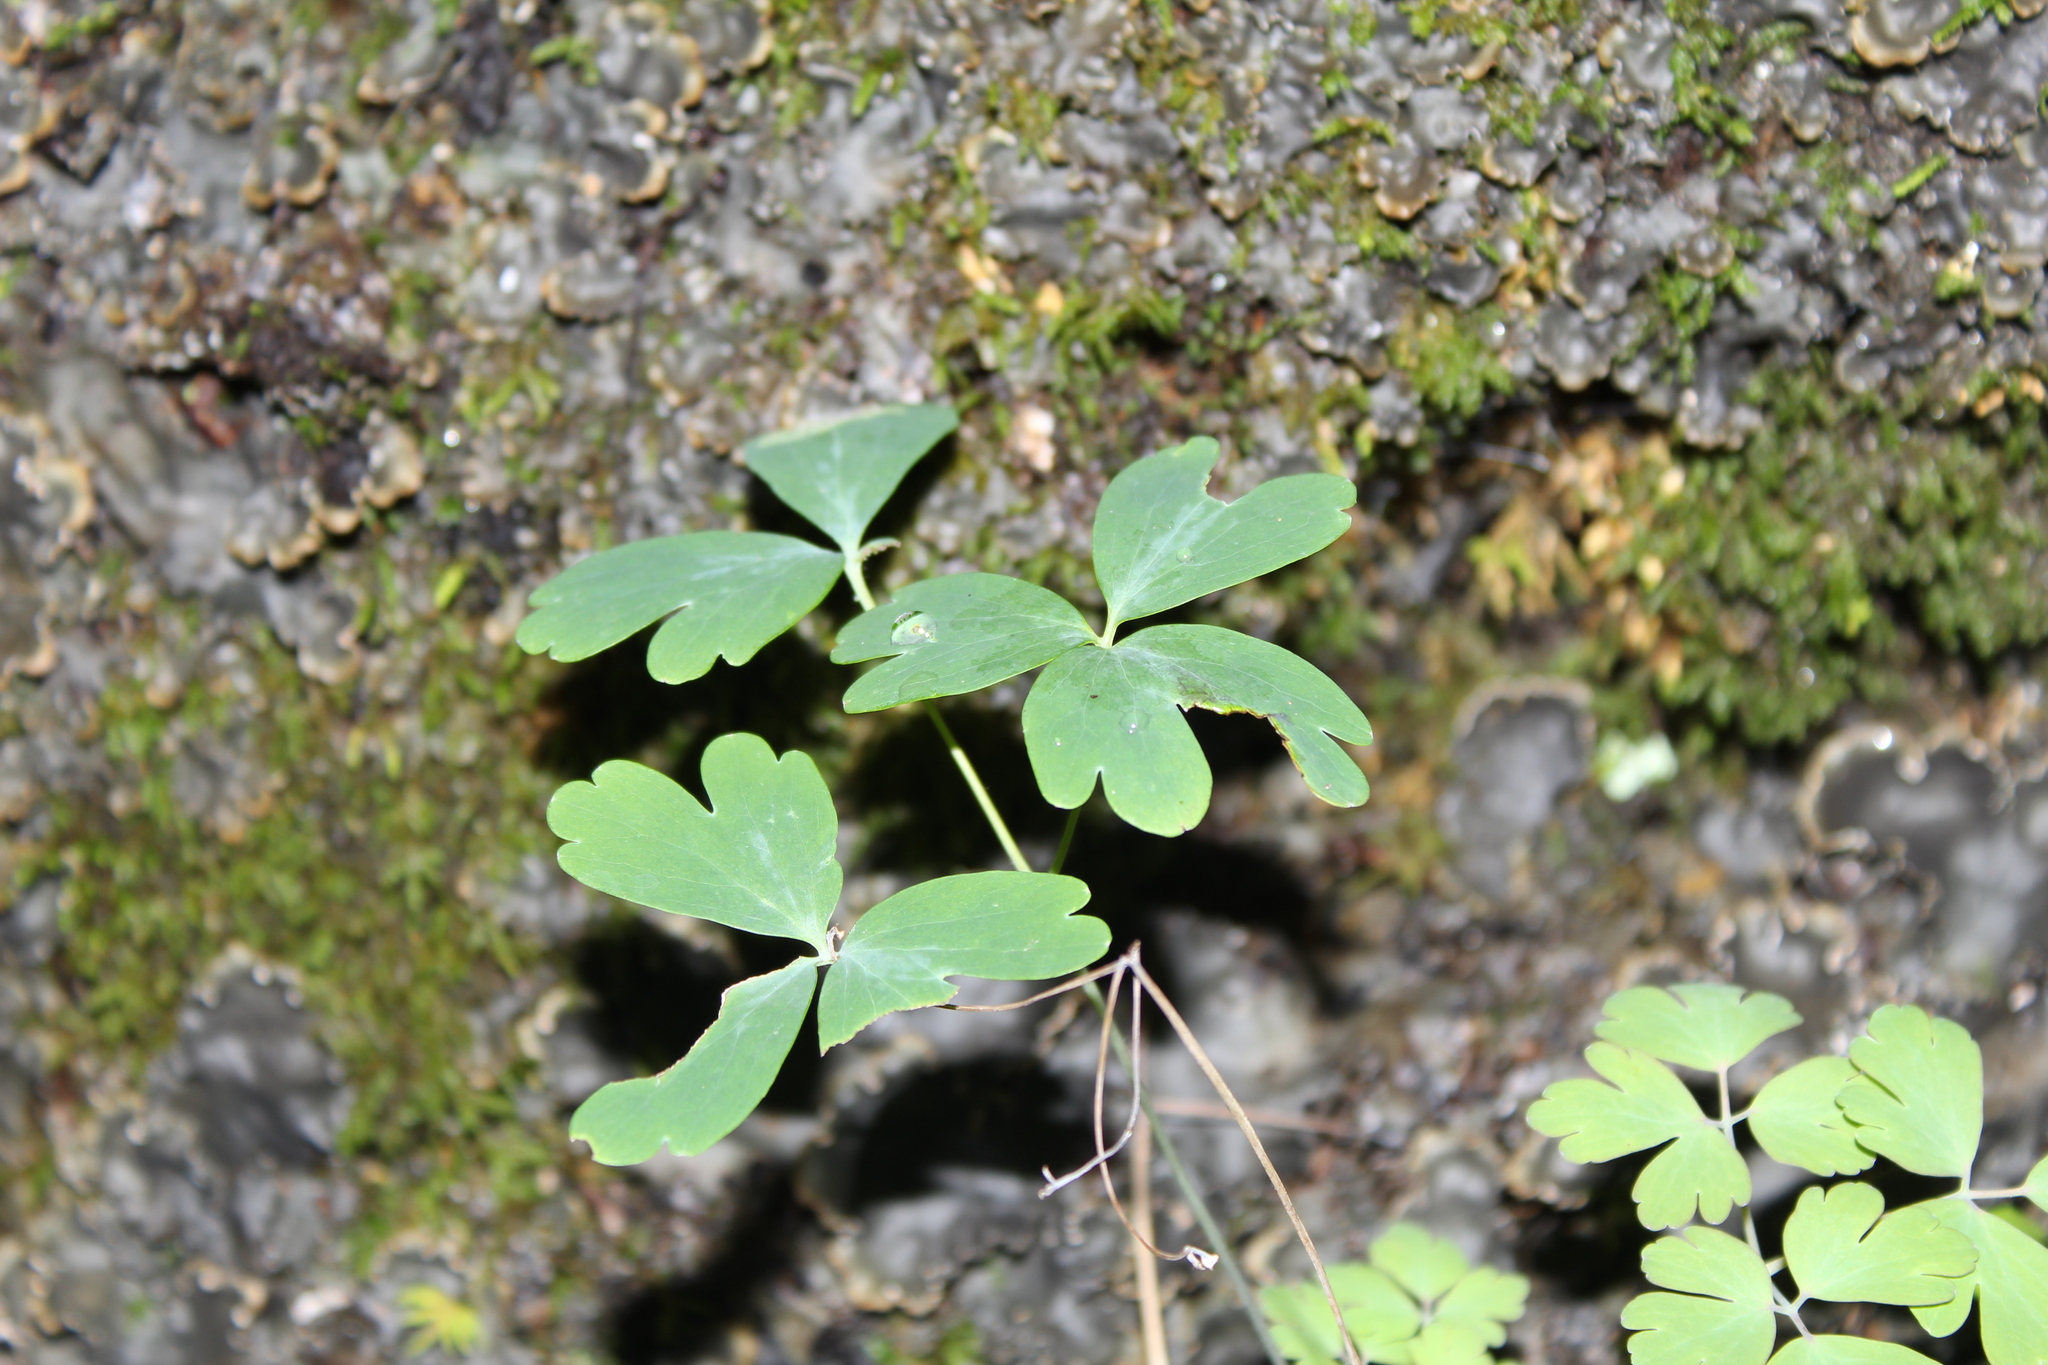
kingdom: Plantae
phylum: Tracheophyta
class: Magnoliopsida
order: Ranunculales
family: Ranunculaceae
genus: Aquilegia
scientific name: Aquilegia canadensis
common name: American columbine
